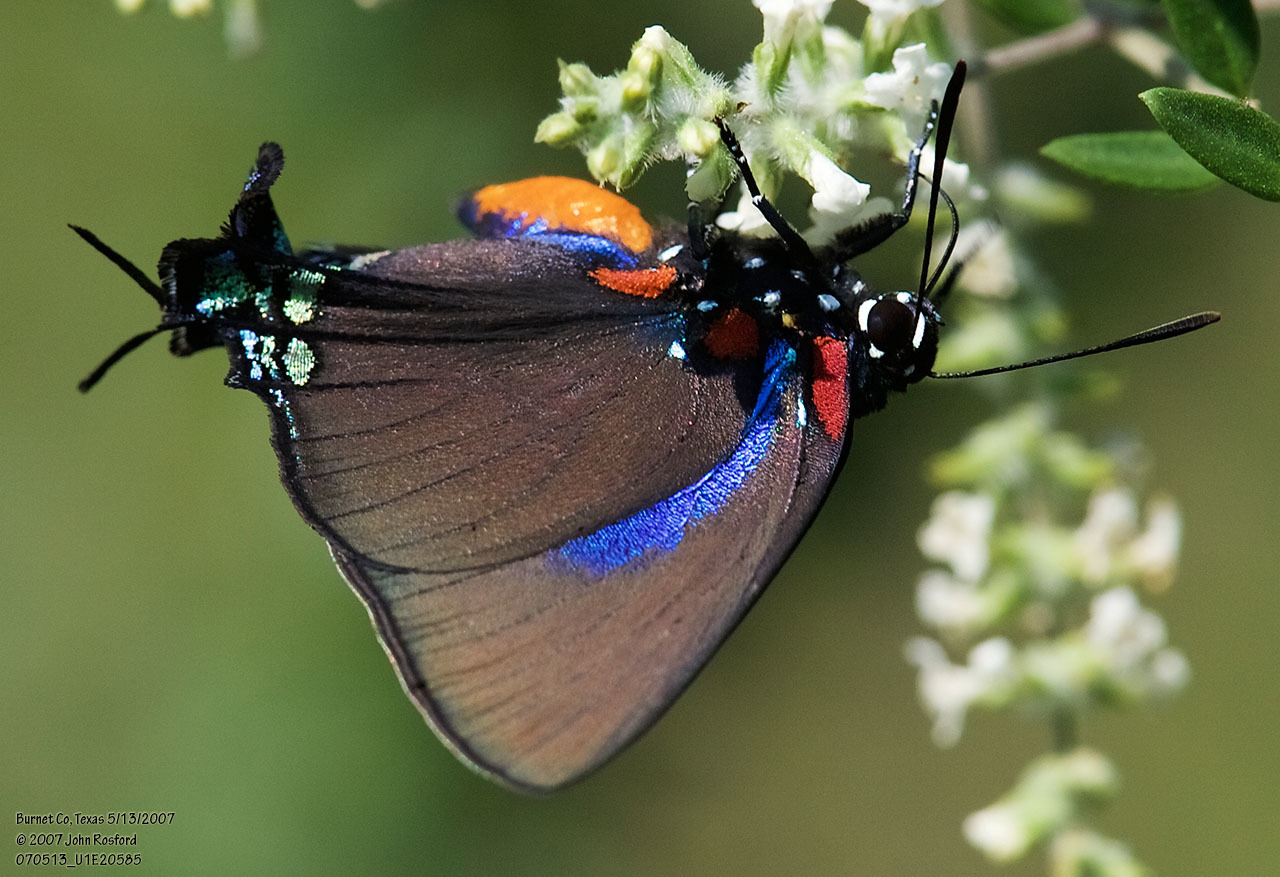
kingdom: Animalia
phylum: Arthropoda
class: Insecta
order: Lepidoptera
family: Lycaenidae
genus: Atlides
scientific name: Atlides halesus
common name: Great purple hairstreak
